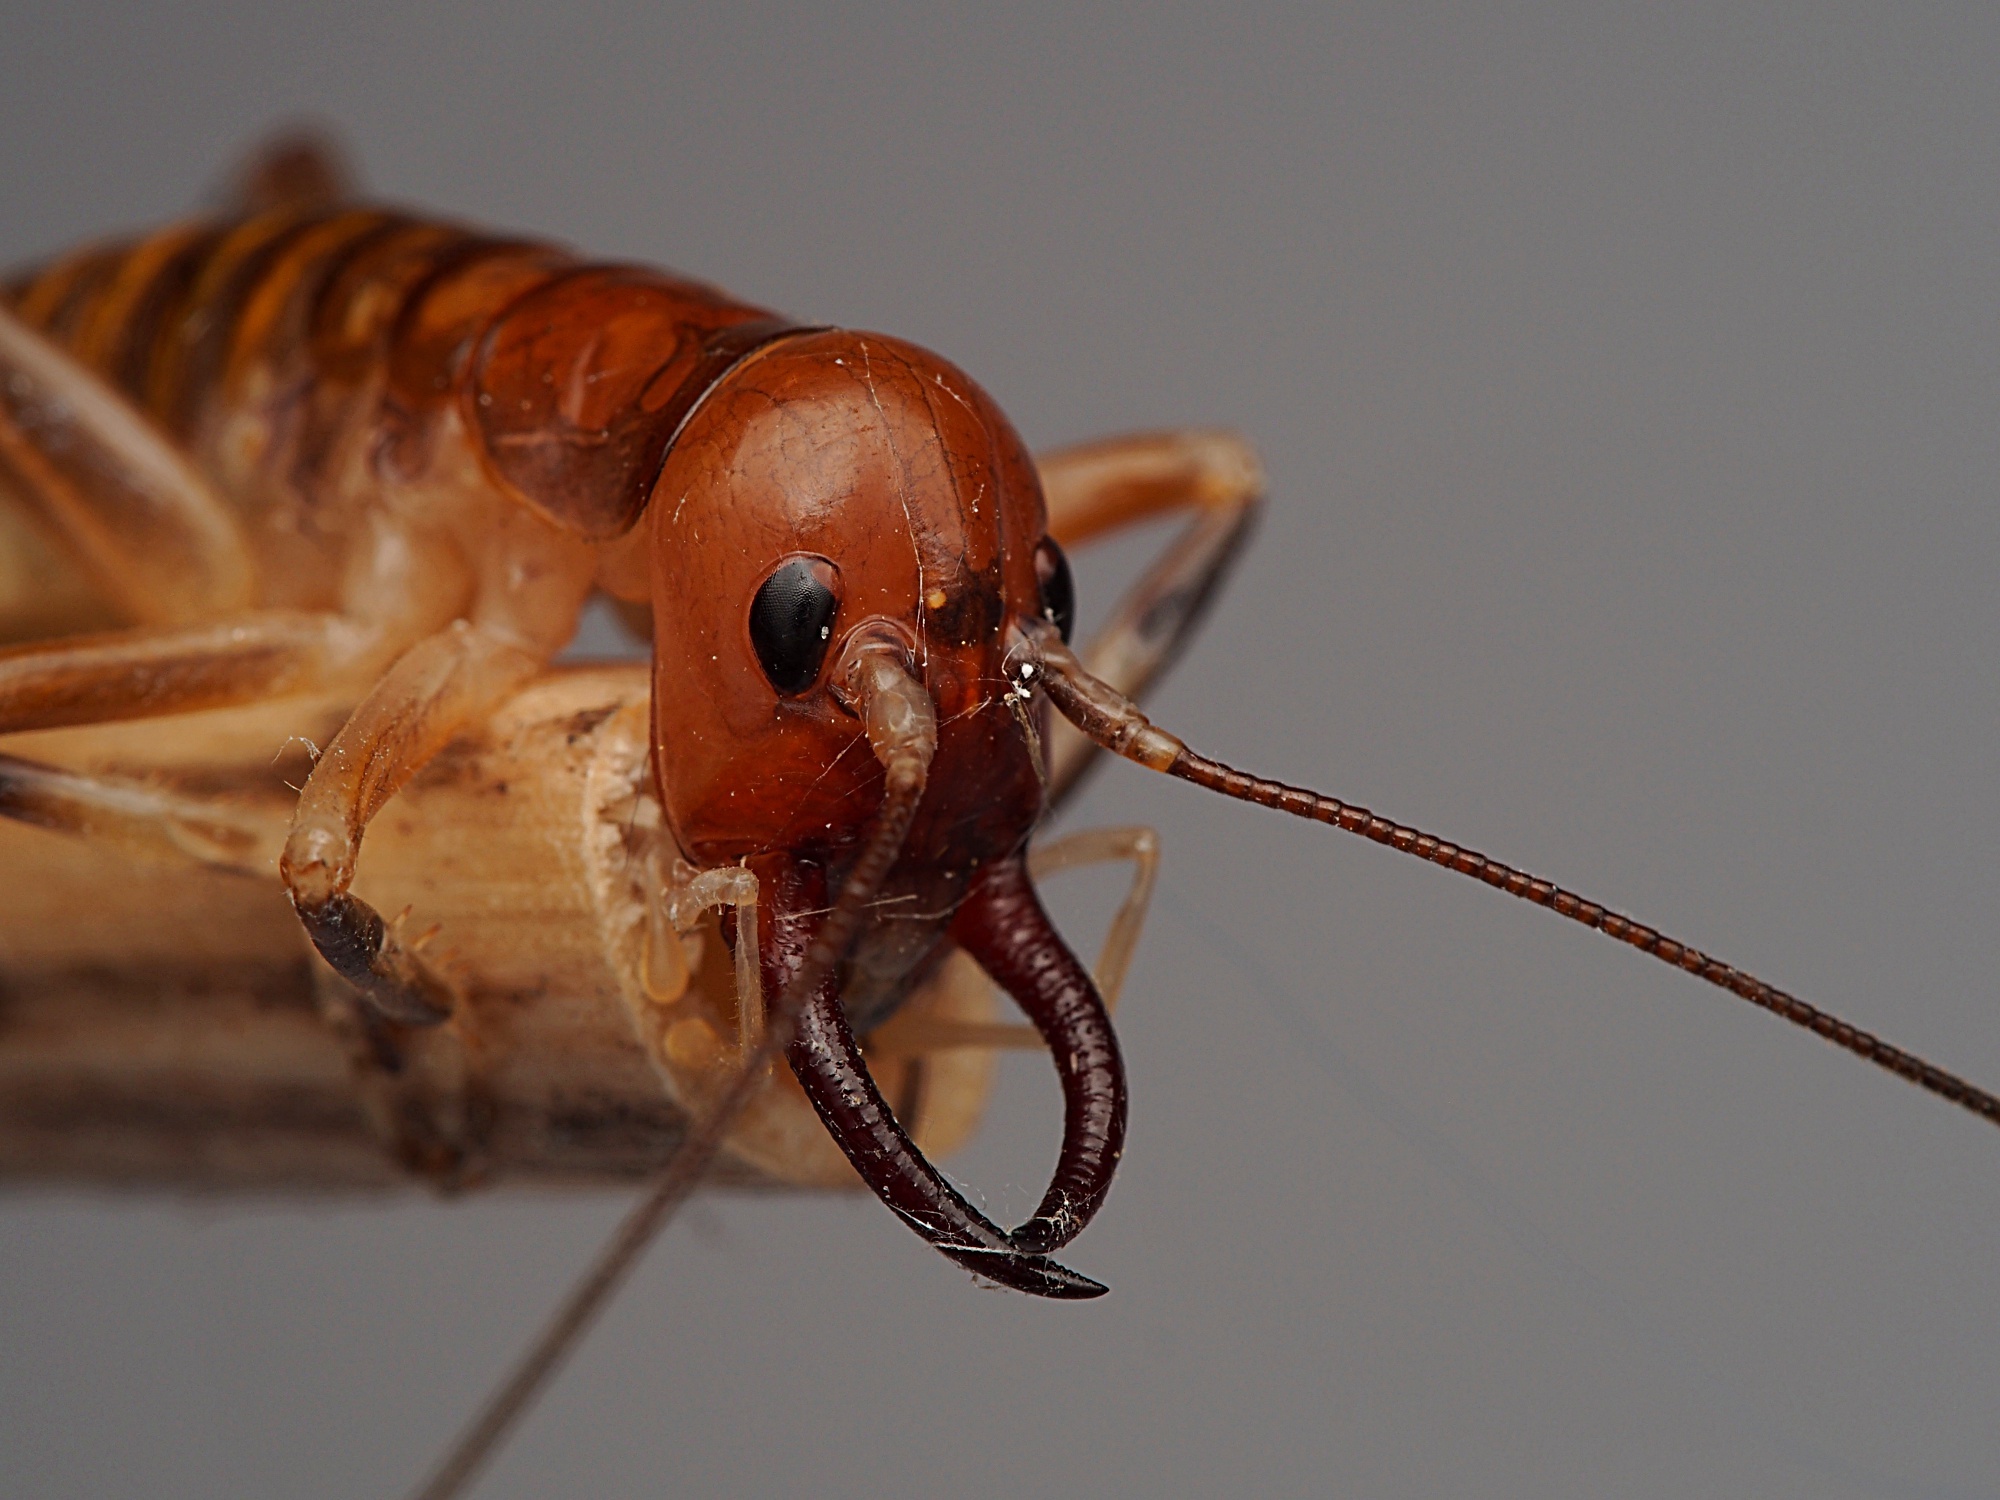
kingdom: Animalia
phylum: Arthropoda
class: Insecta
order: Orthoptera
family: Anostostomatidae
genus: Anisoura
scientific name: Anisoura nicobarica
